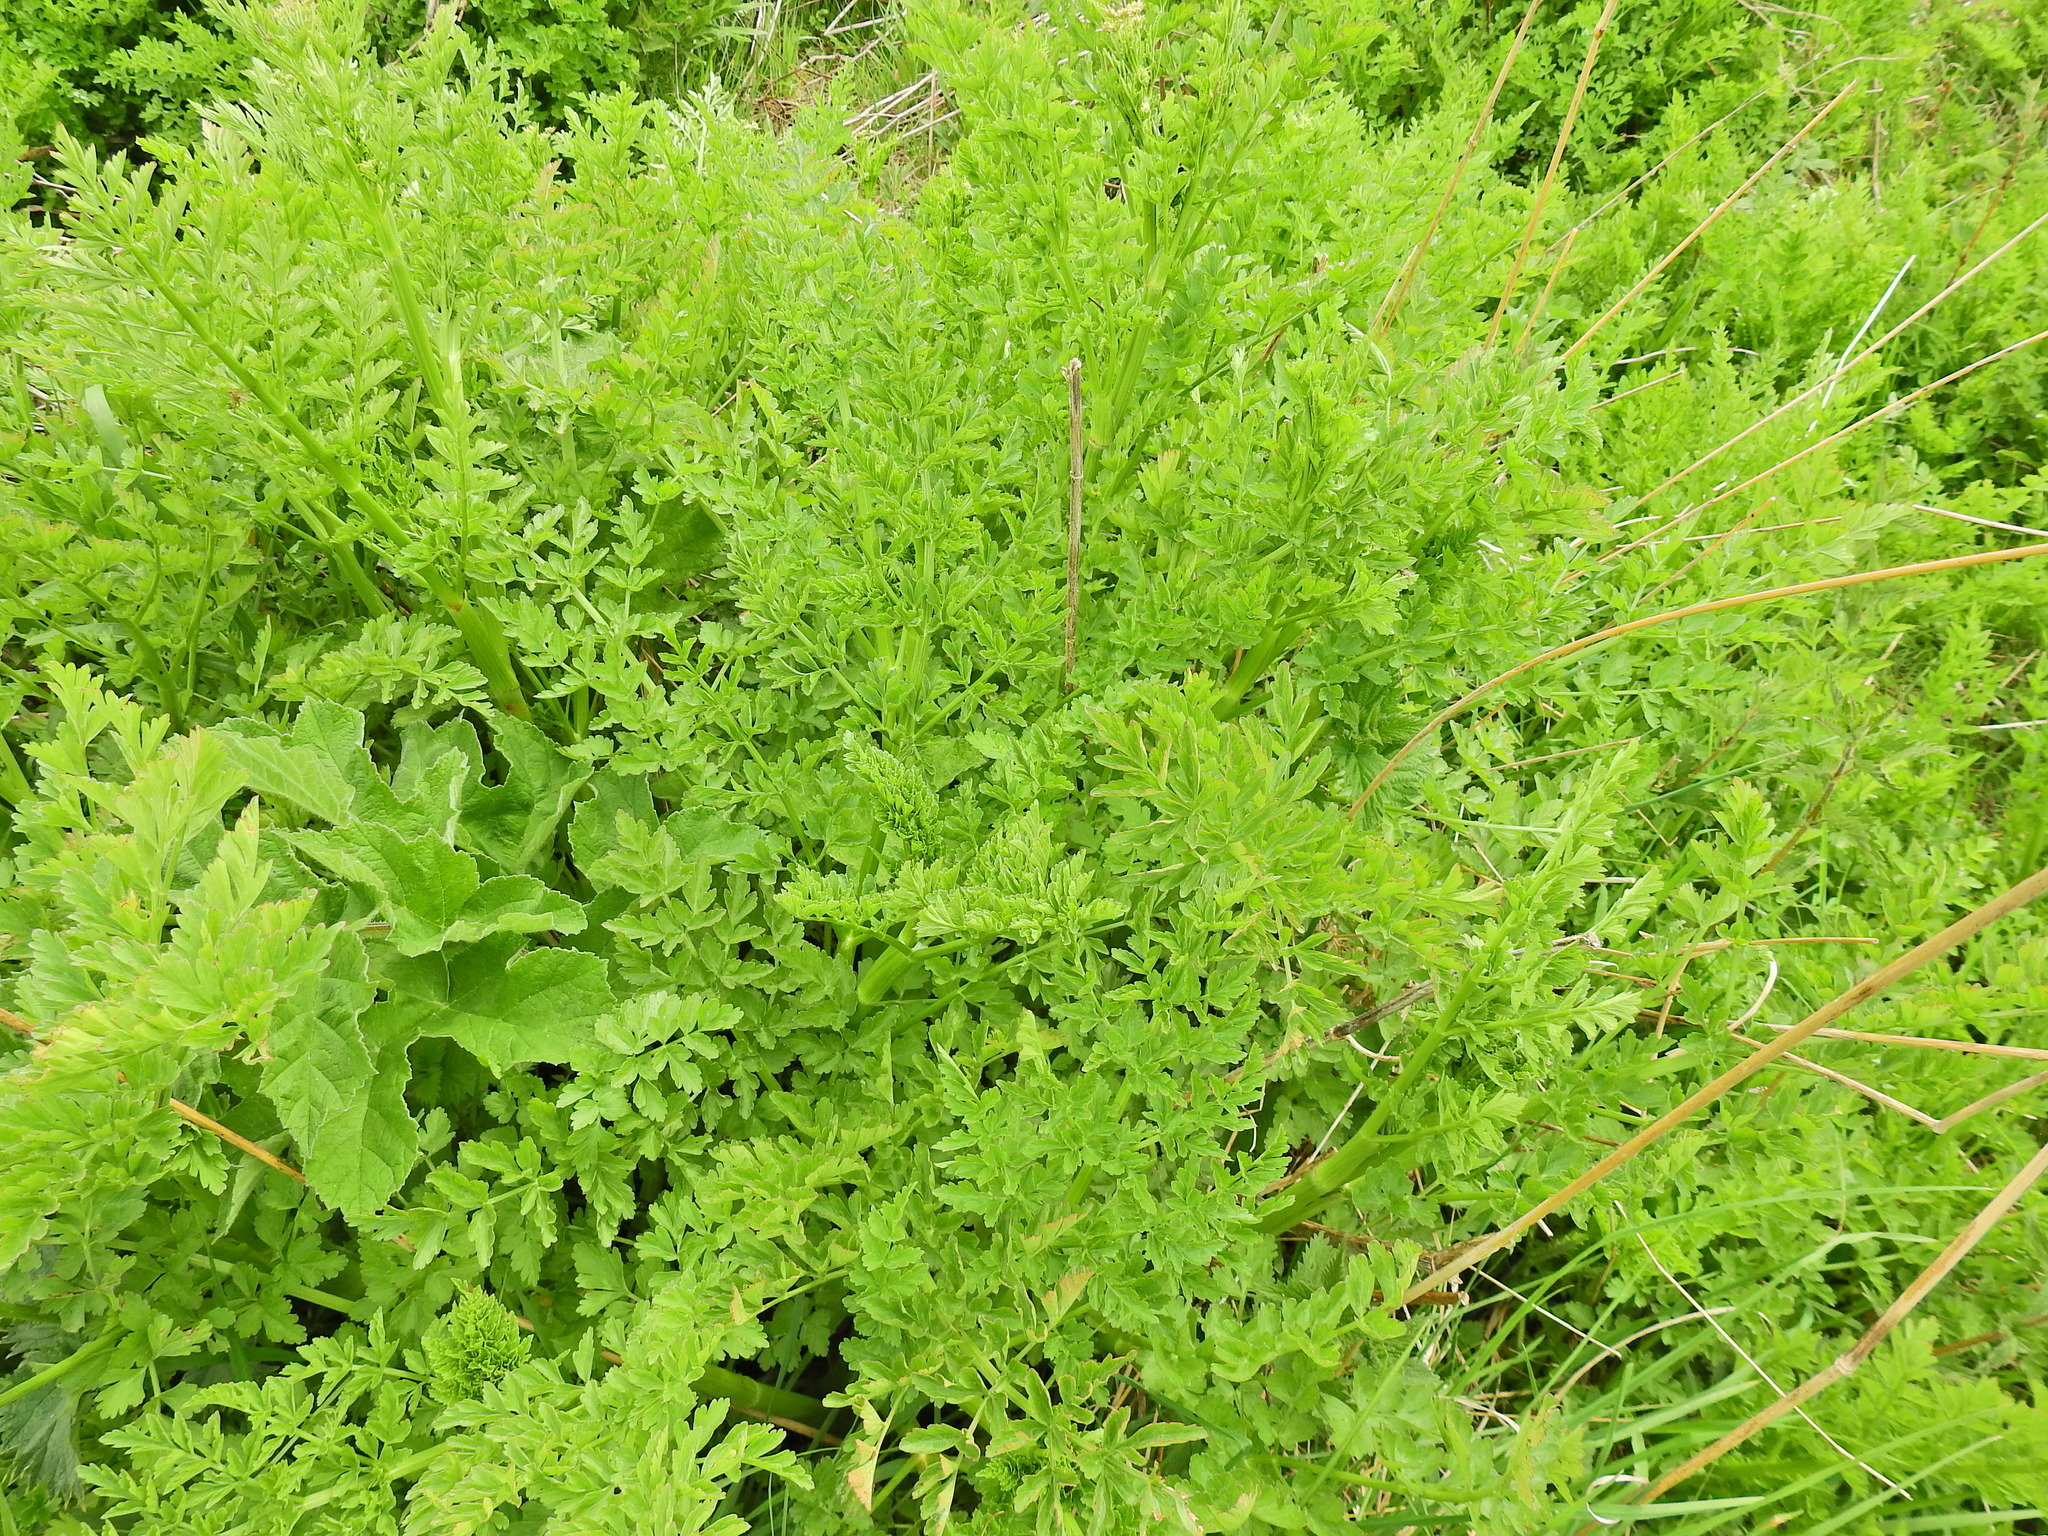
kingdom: Plantae
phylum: Tracheophyta
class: Magnoliopsida
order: Apiales
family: Apiaceae
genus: Oenanthe
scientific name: Oenanthe crocata
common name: Hemlock water-dropwort
